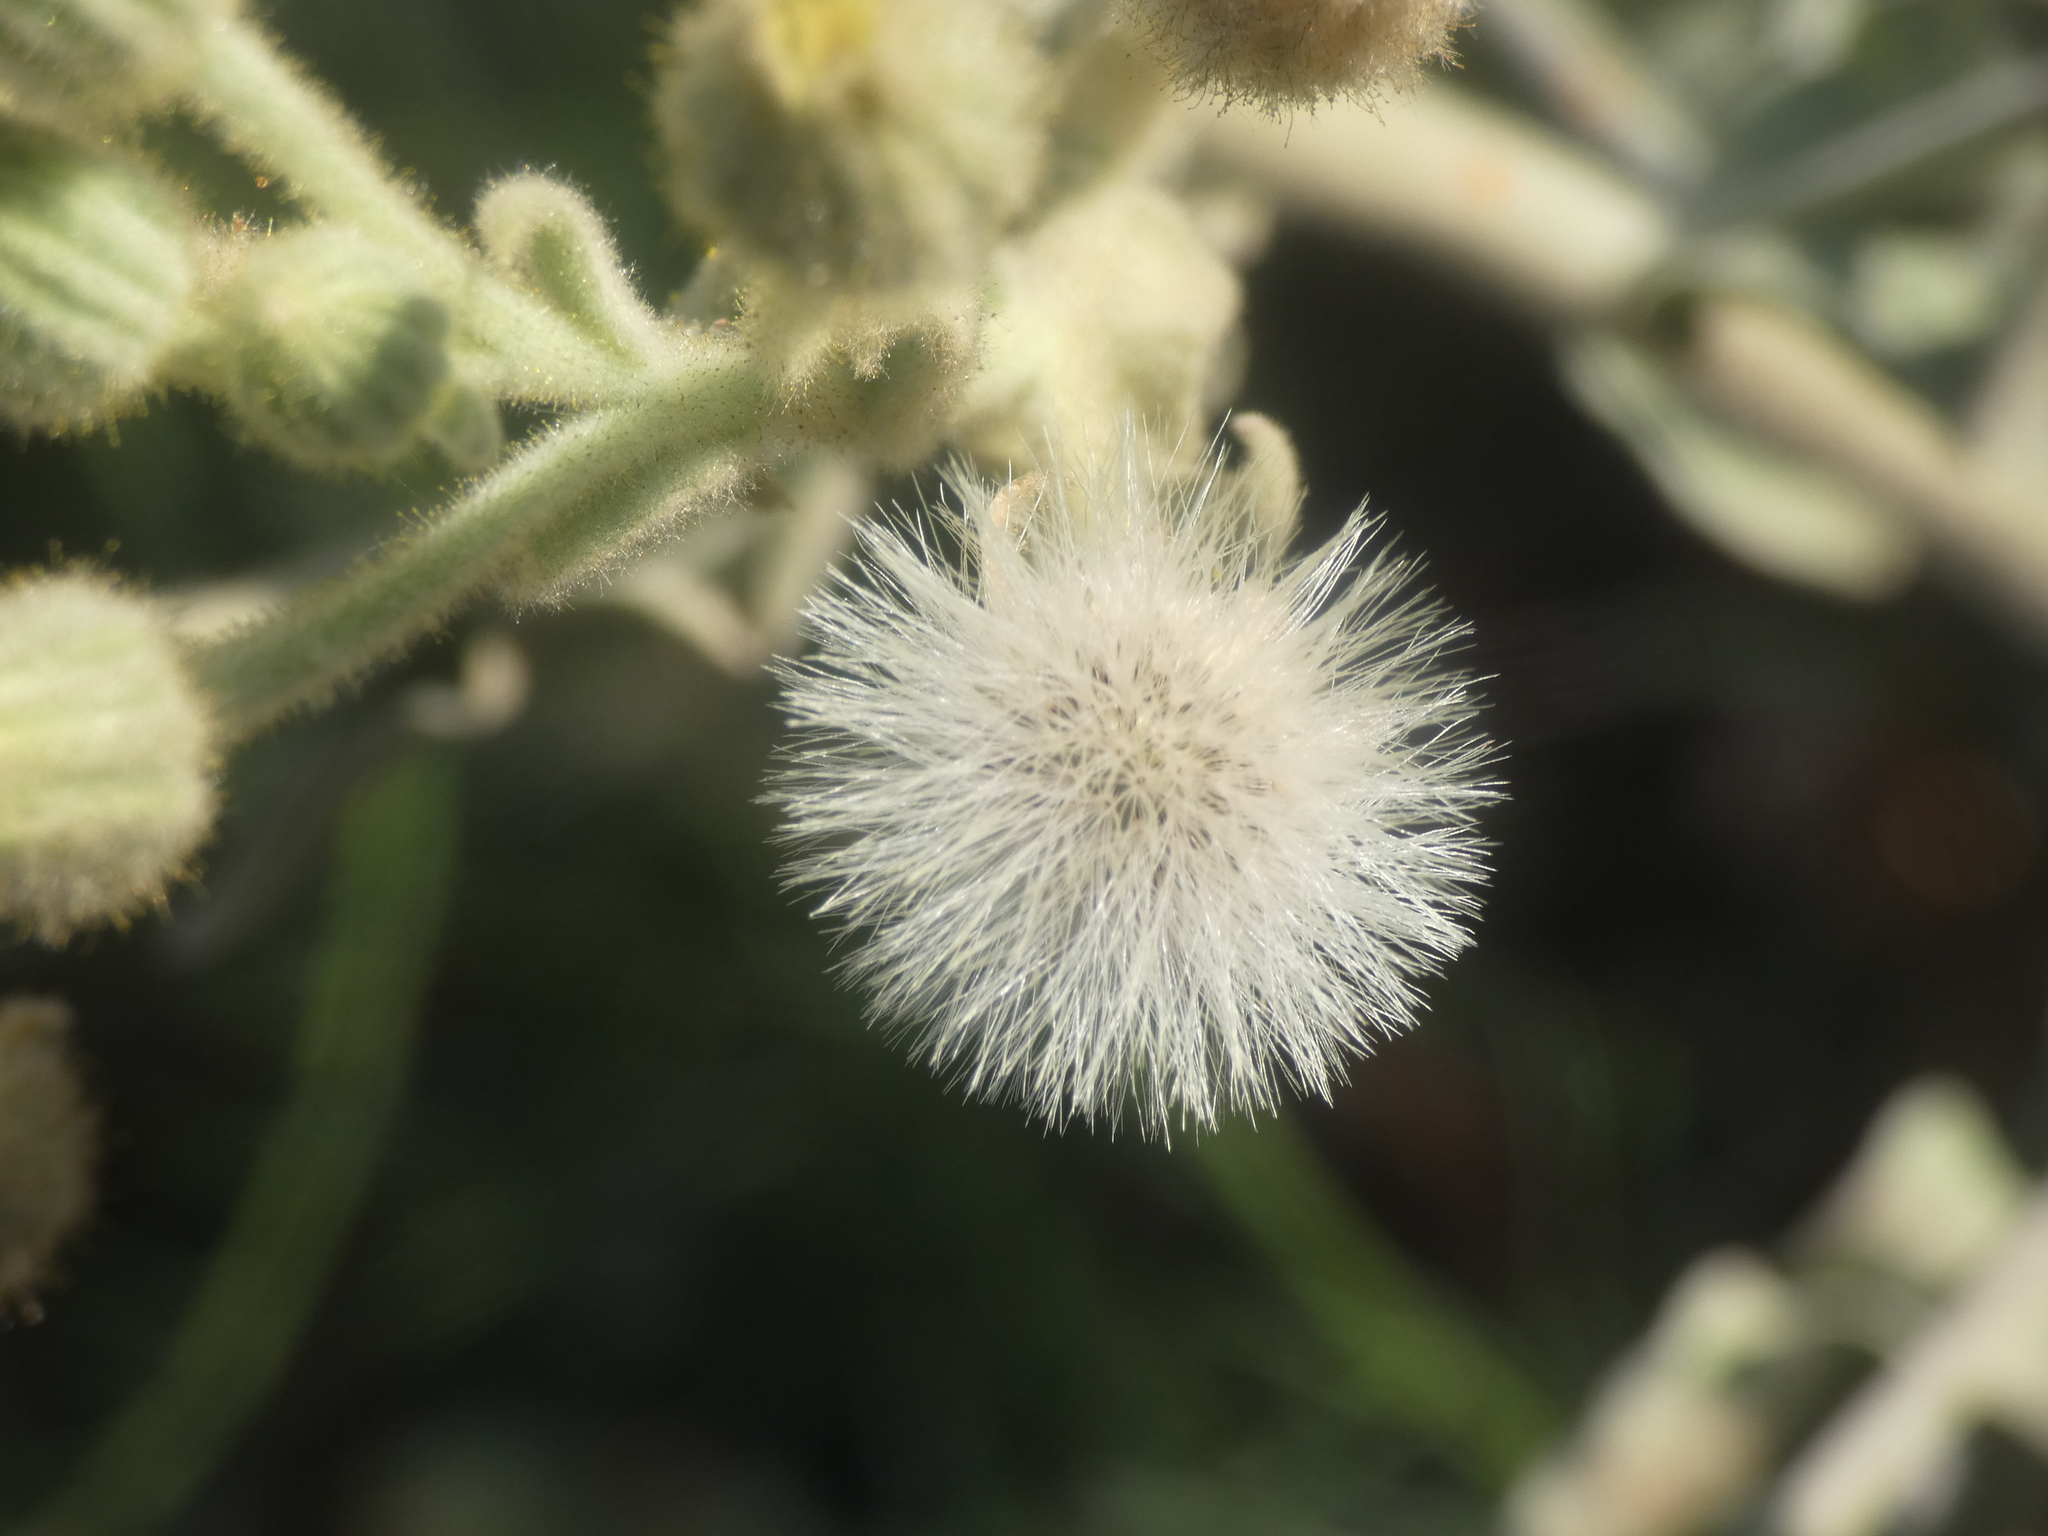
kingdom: Plantae
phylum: Tracheophyta
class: Magnoliopsida
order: Asterales
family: Asteraceae
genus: Andryala
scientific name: Andryala integrifolia
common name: Common andryala
